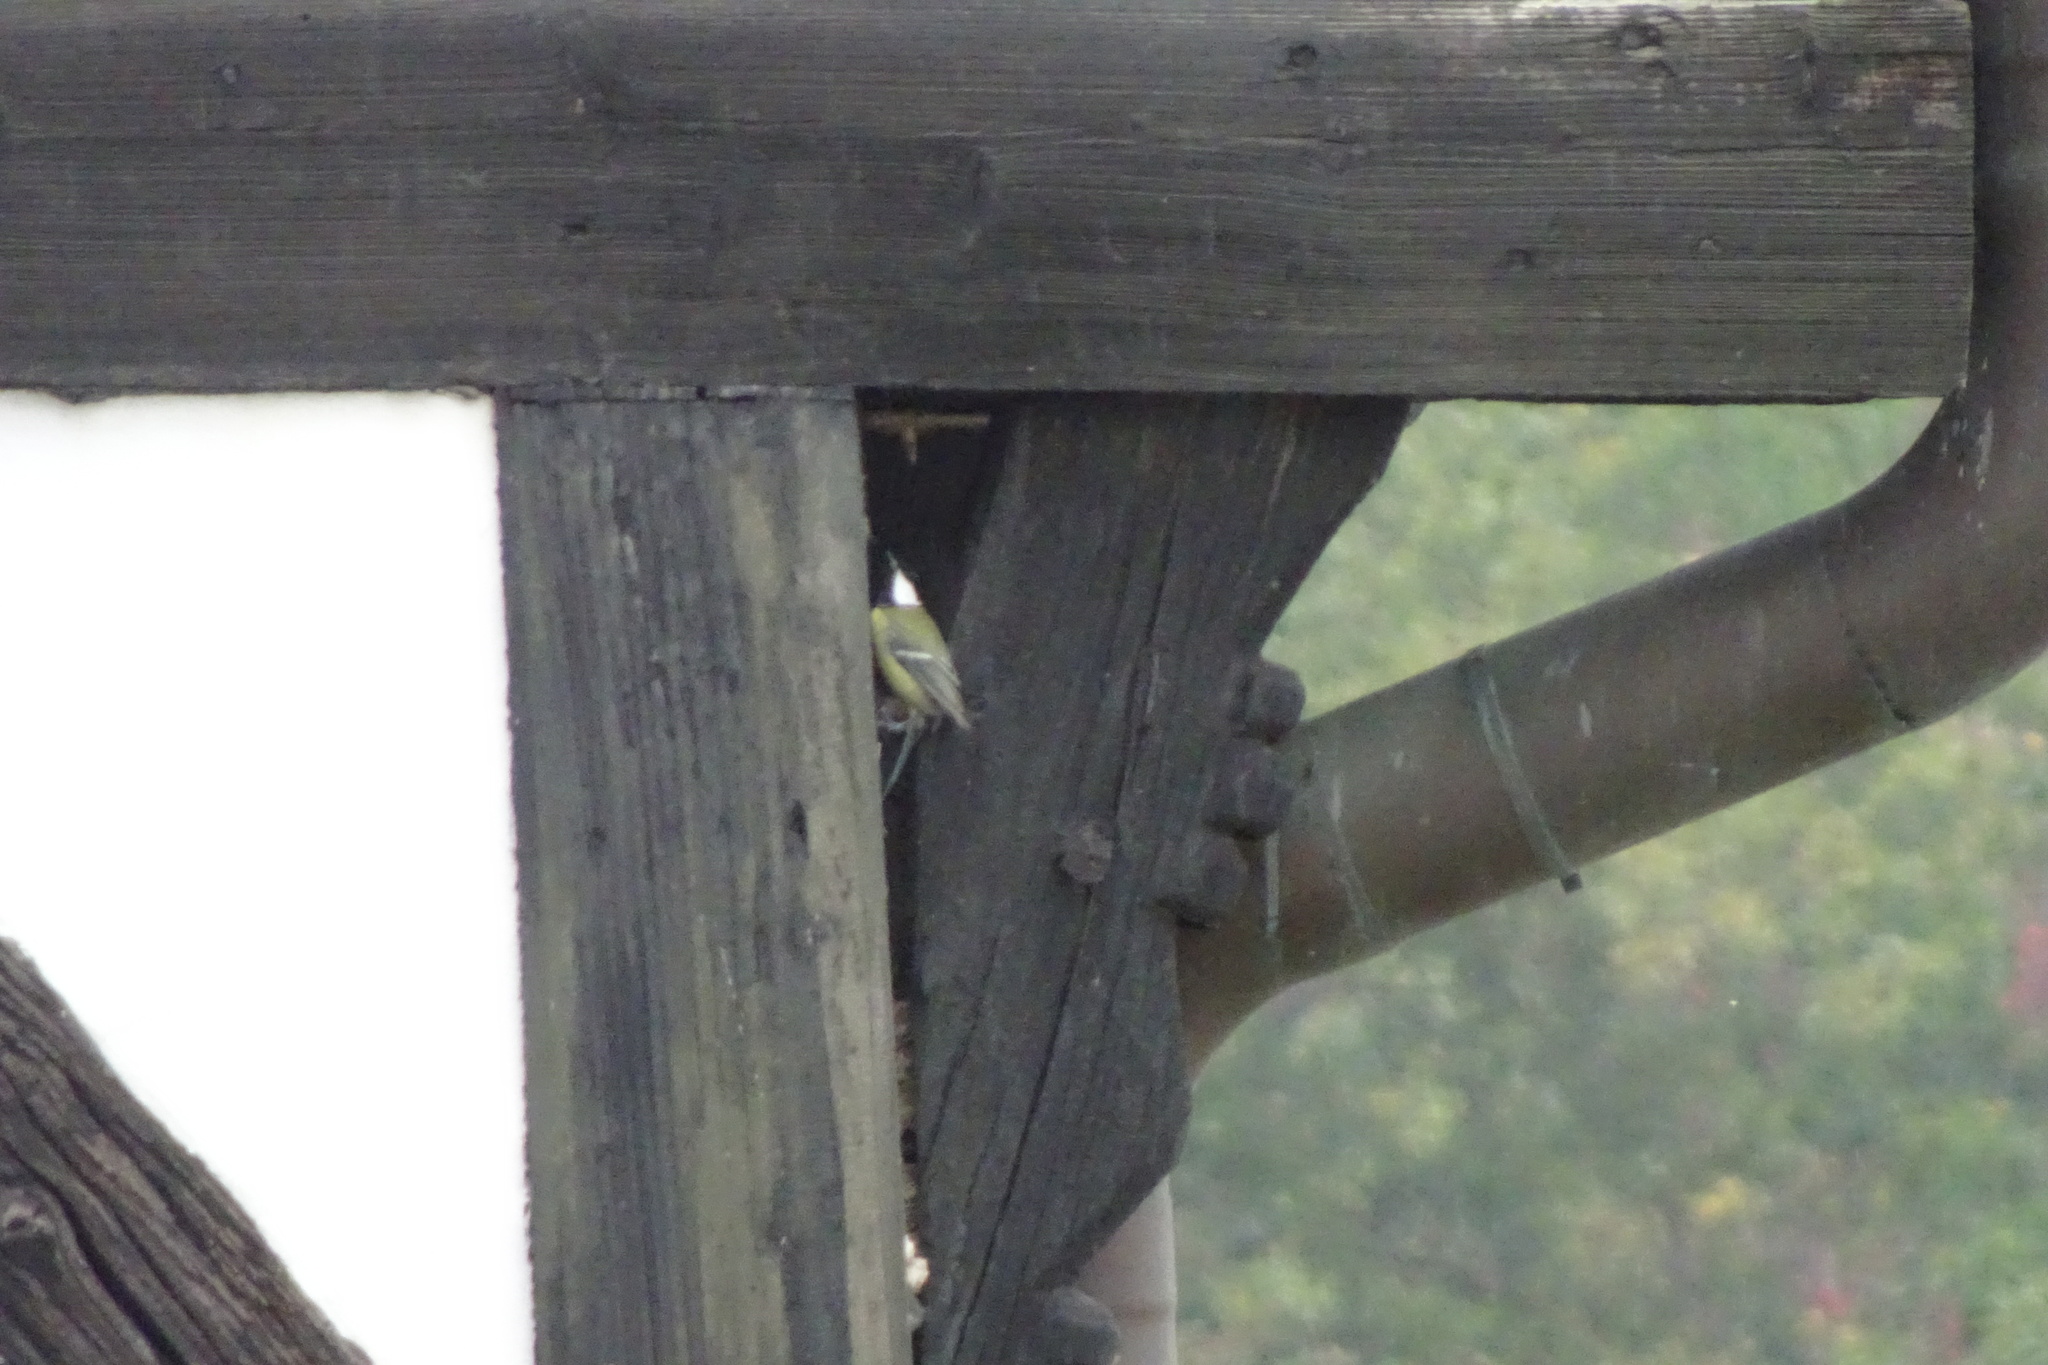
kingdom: Animalia
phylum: Chordata
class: Aves
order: Passeriformes
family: Paridae
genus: Parus
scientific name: Parus major
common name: Great tit
